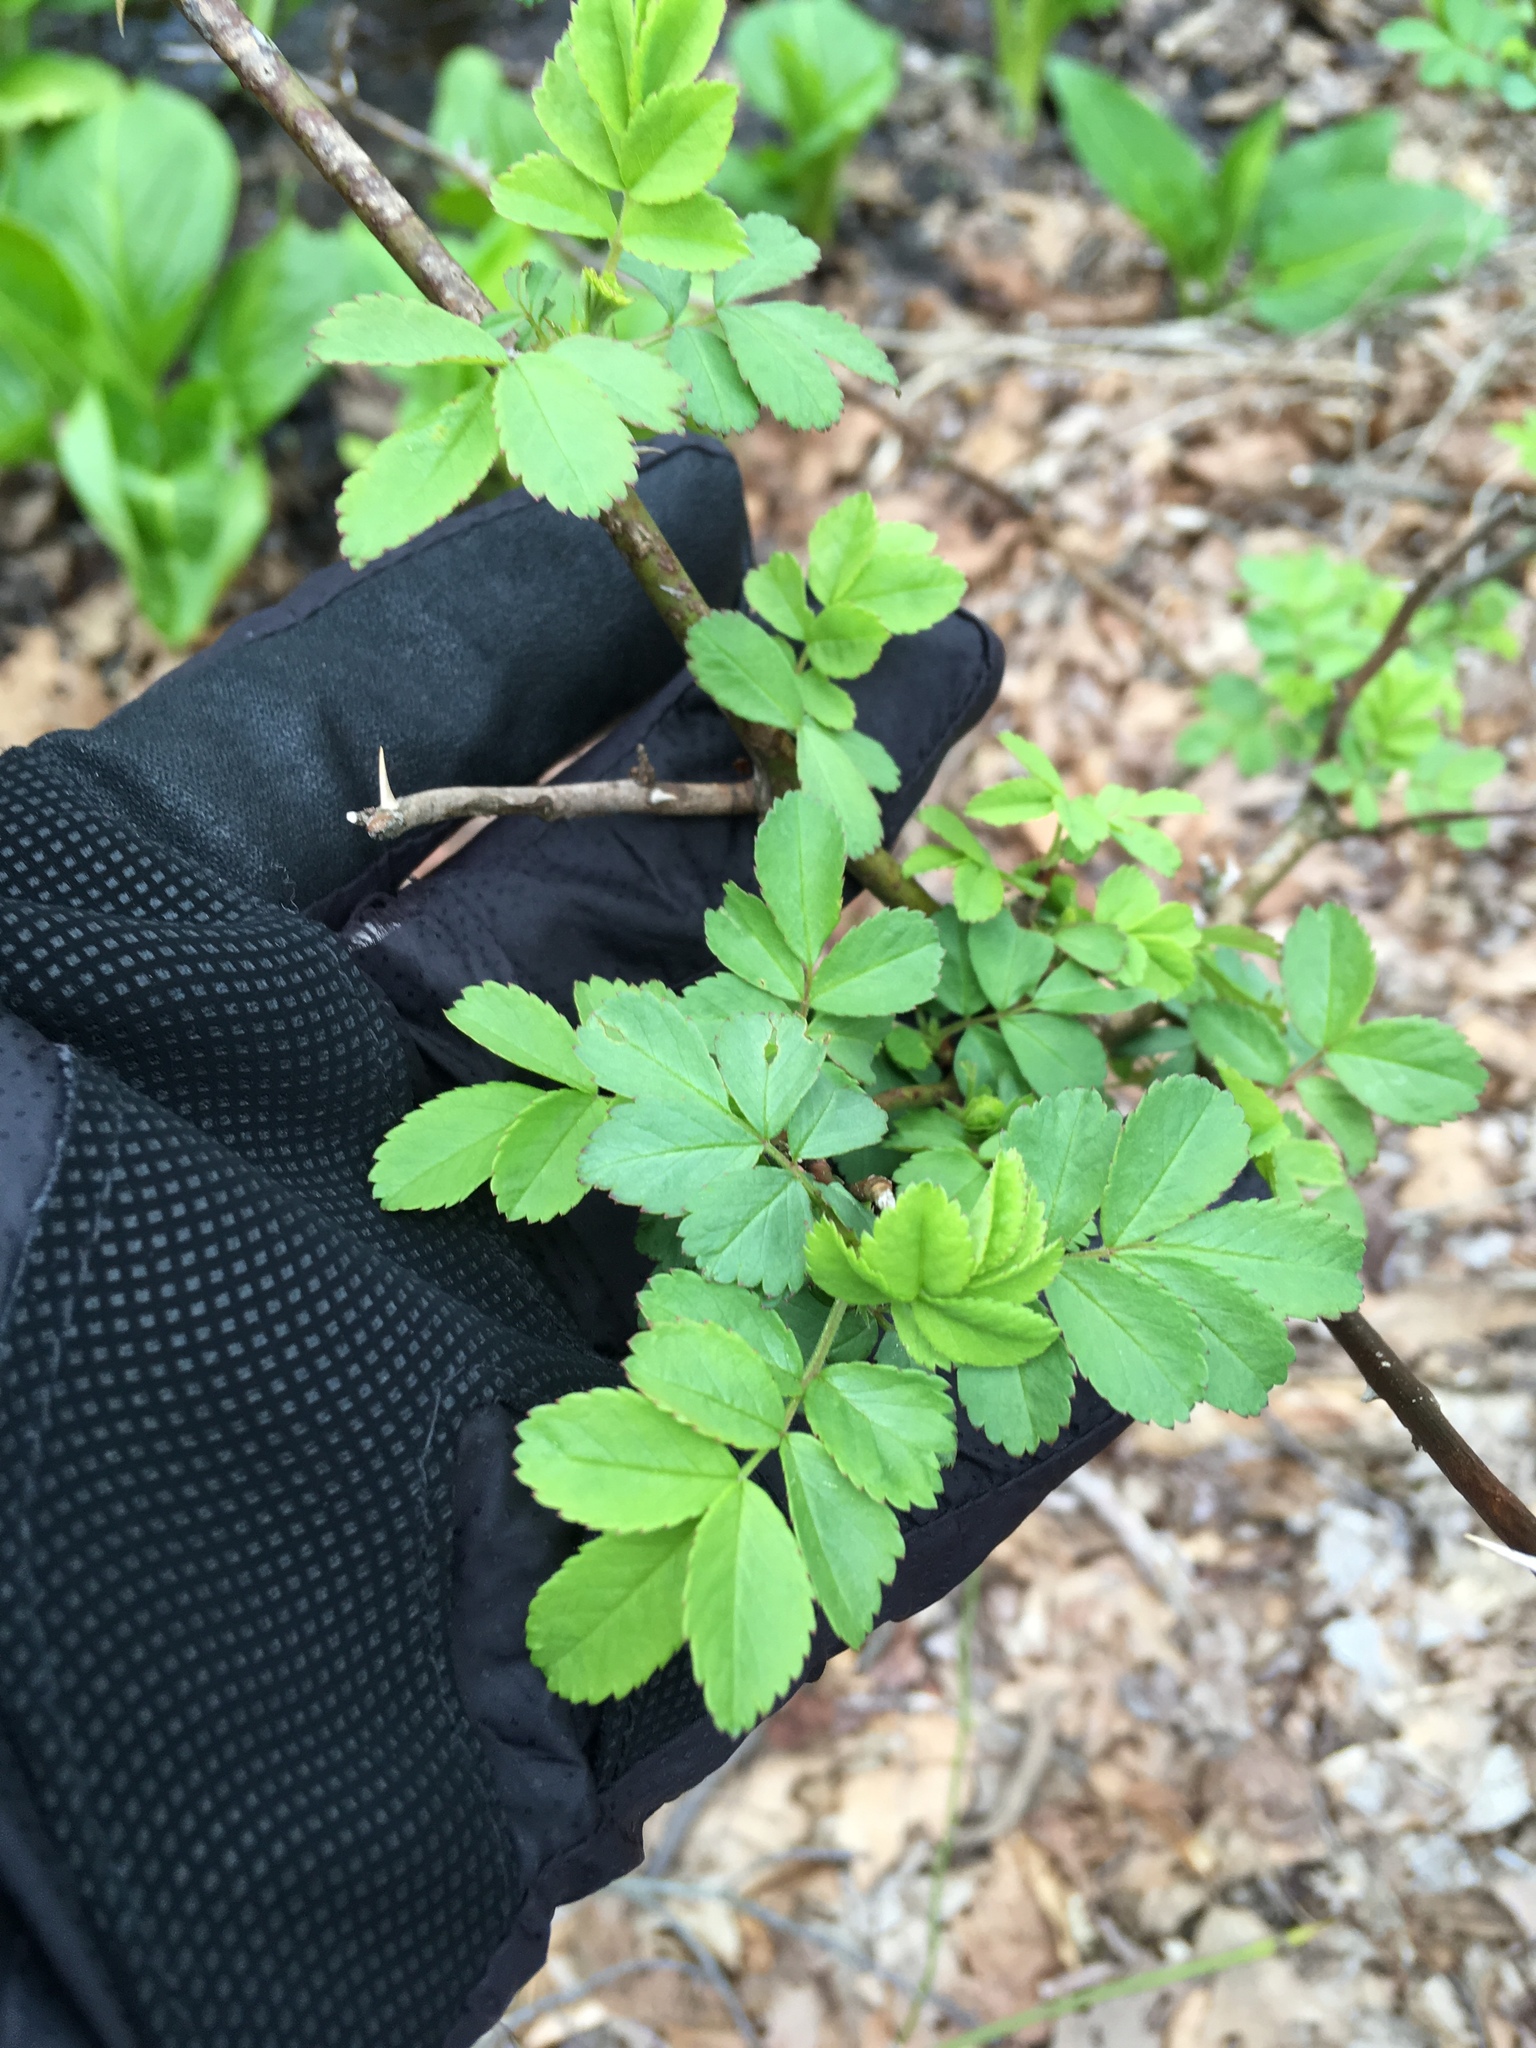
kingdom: Plantae
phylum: Tracheophyta
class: Magnoliopsida
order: Rosales
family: Rosaceae
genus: Rosa
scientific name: Rosa multiflora
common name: Multiflora rose
